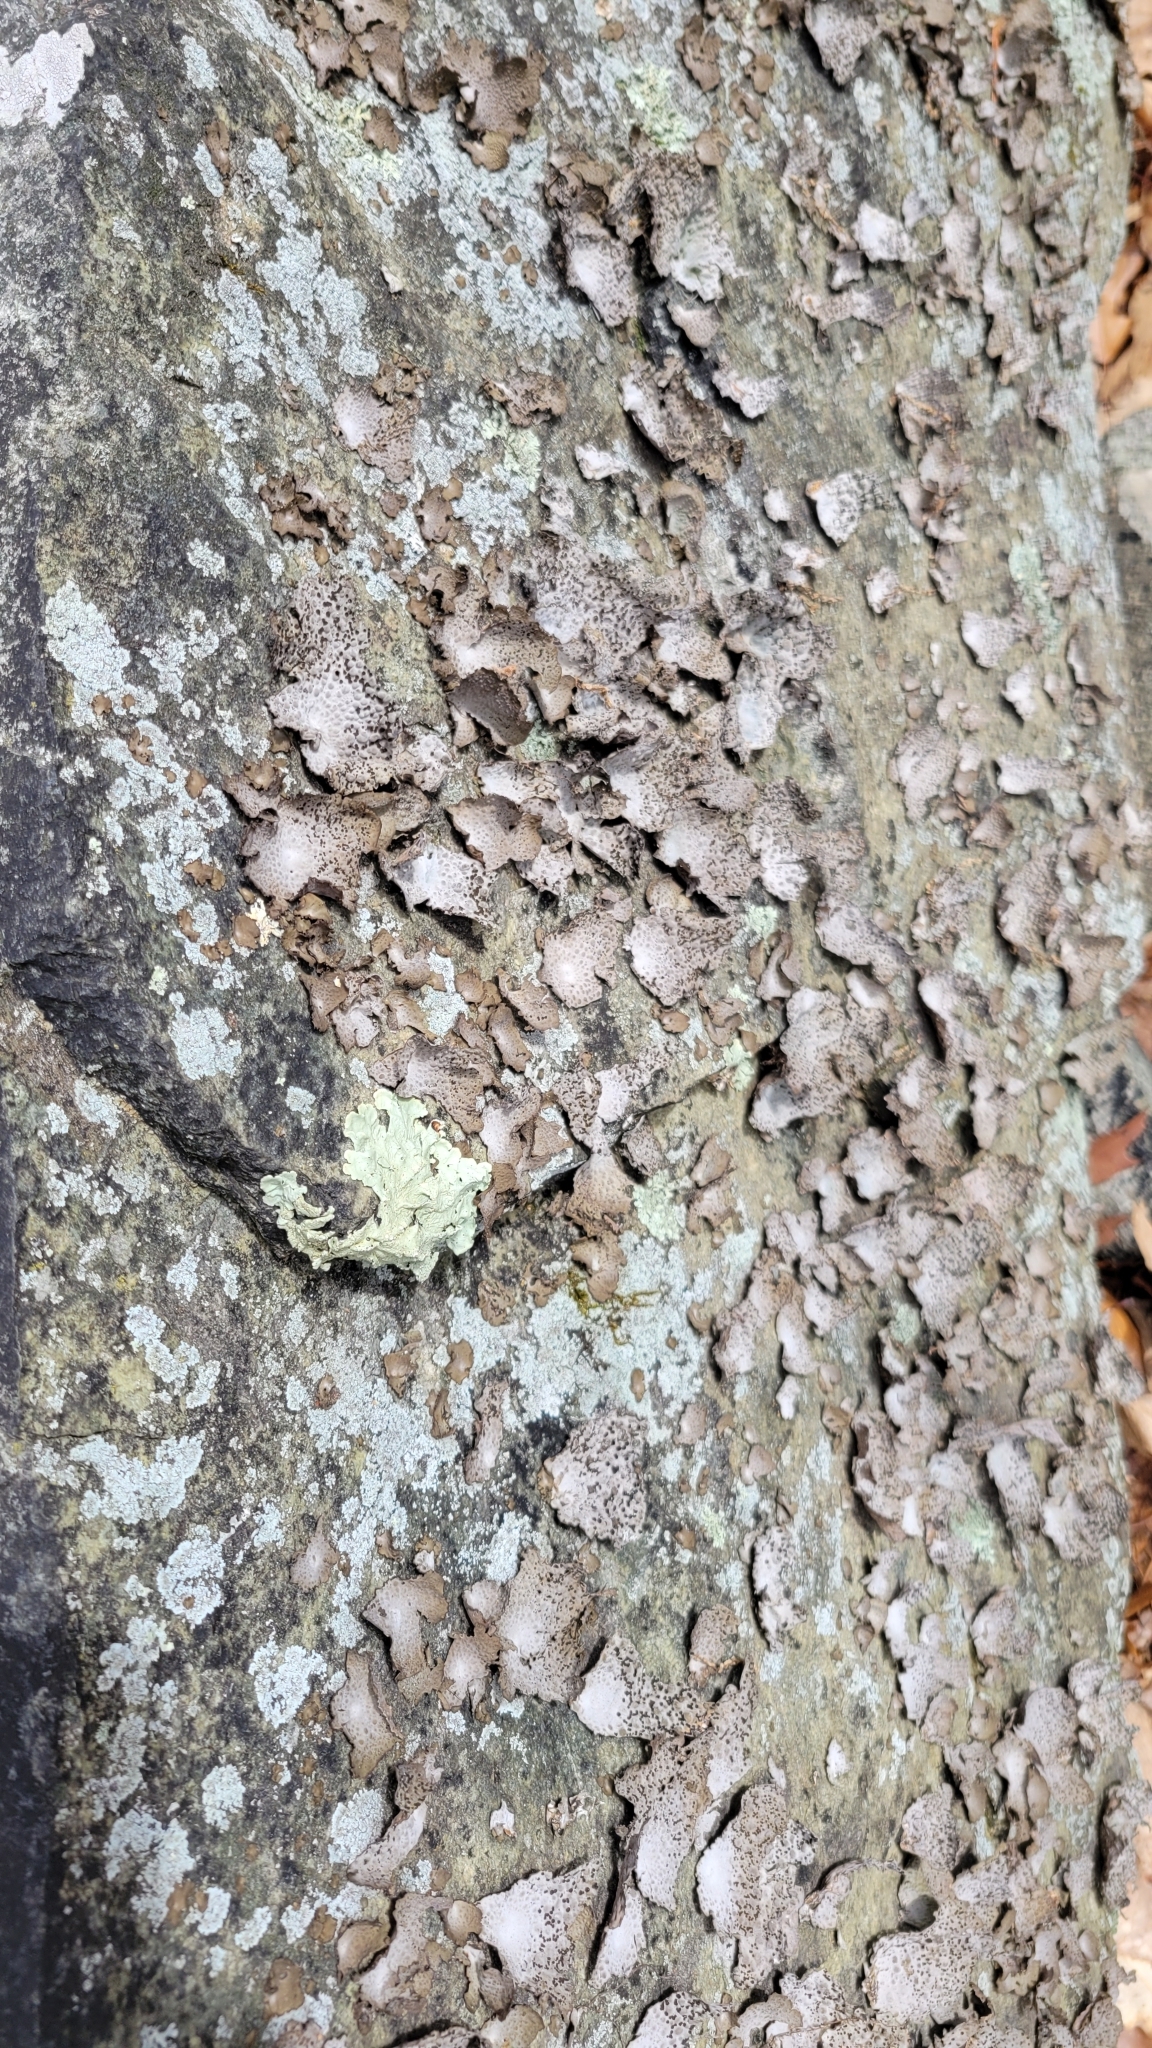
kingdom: Fungi
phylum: Ascomycota
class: Lecanoromycetes
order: Umbilicariales
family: Umbilicariaceae
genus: Lasallia
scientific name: Lasallia papulosa
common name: Common toadskin lichen
